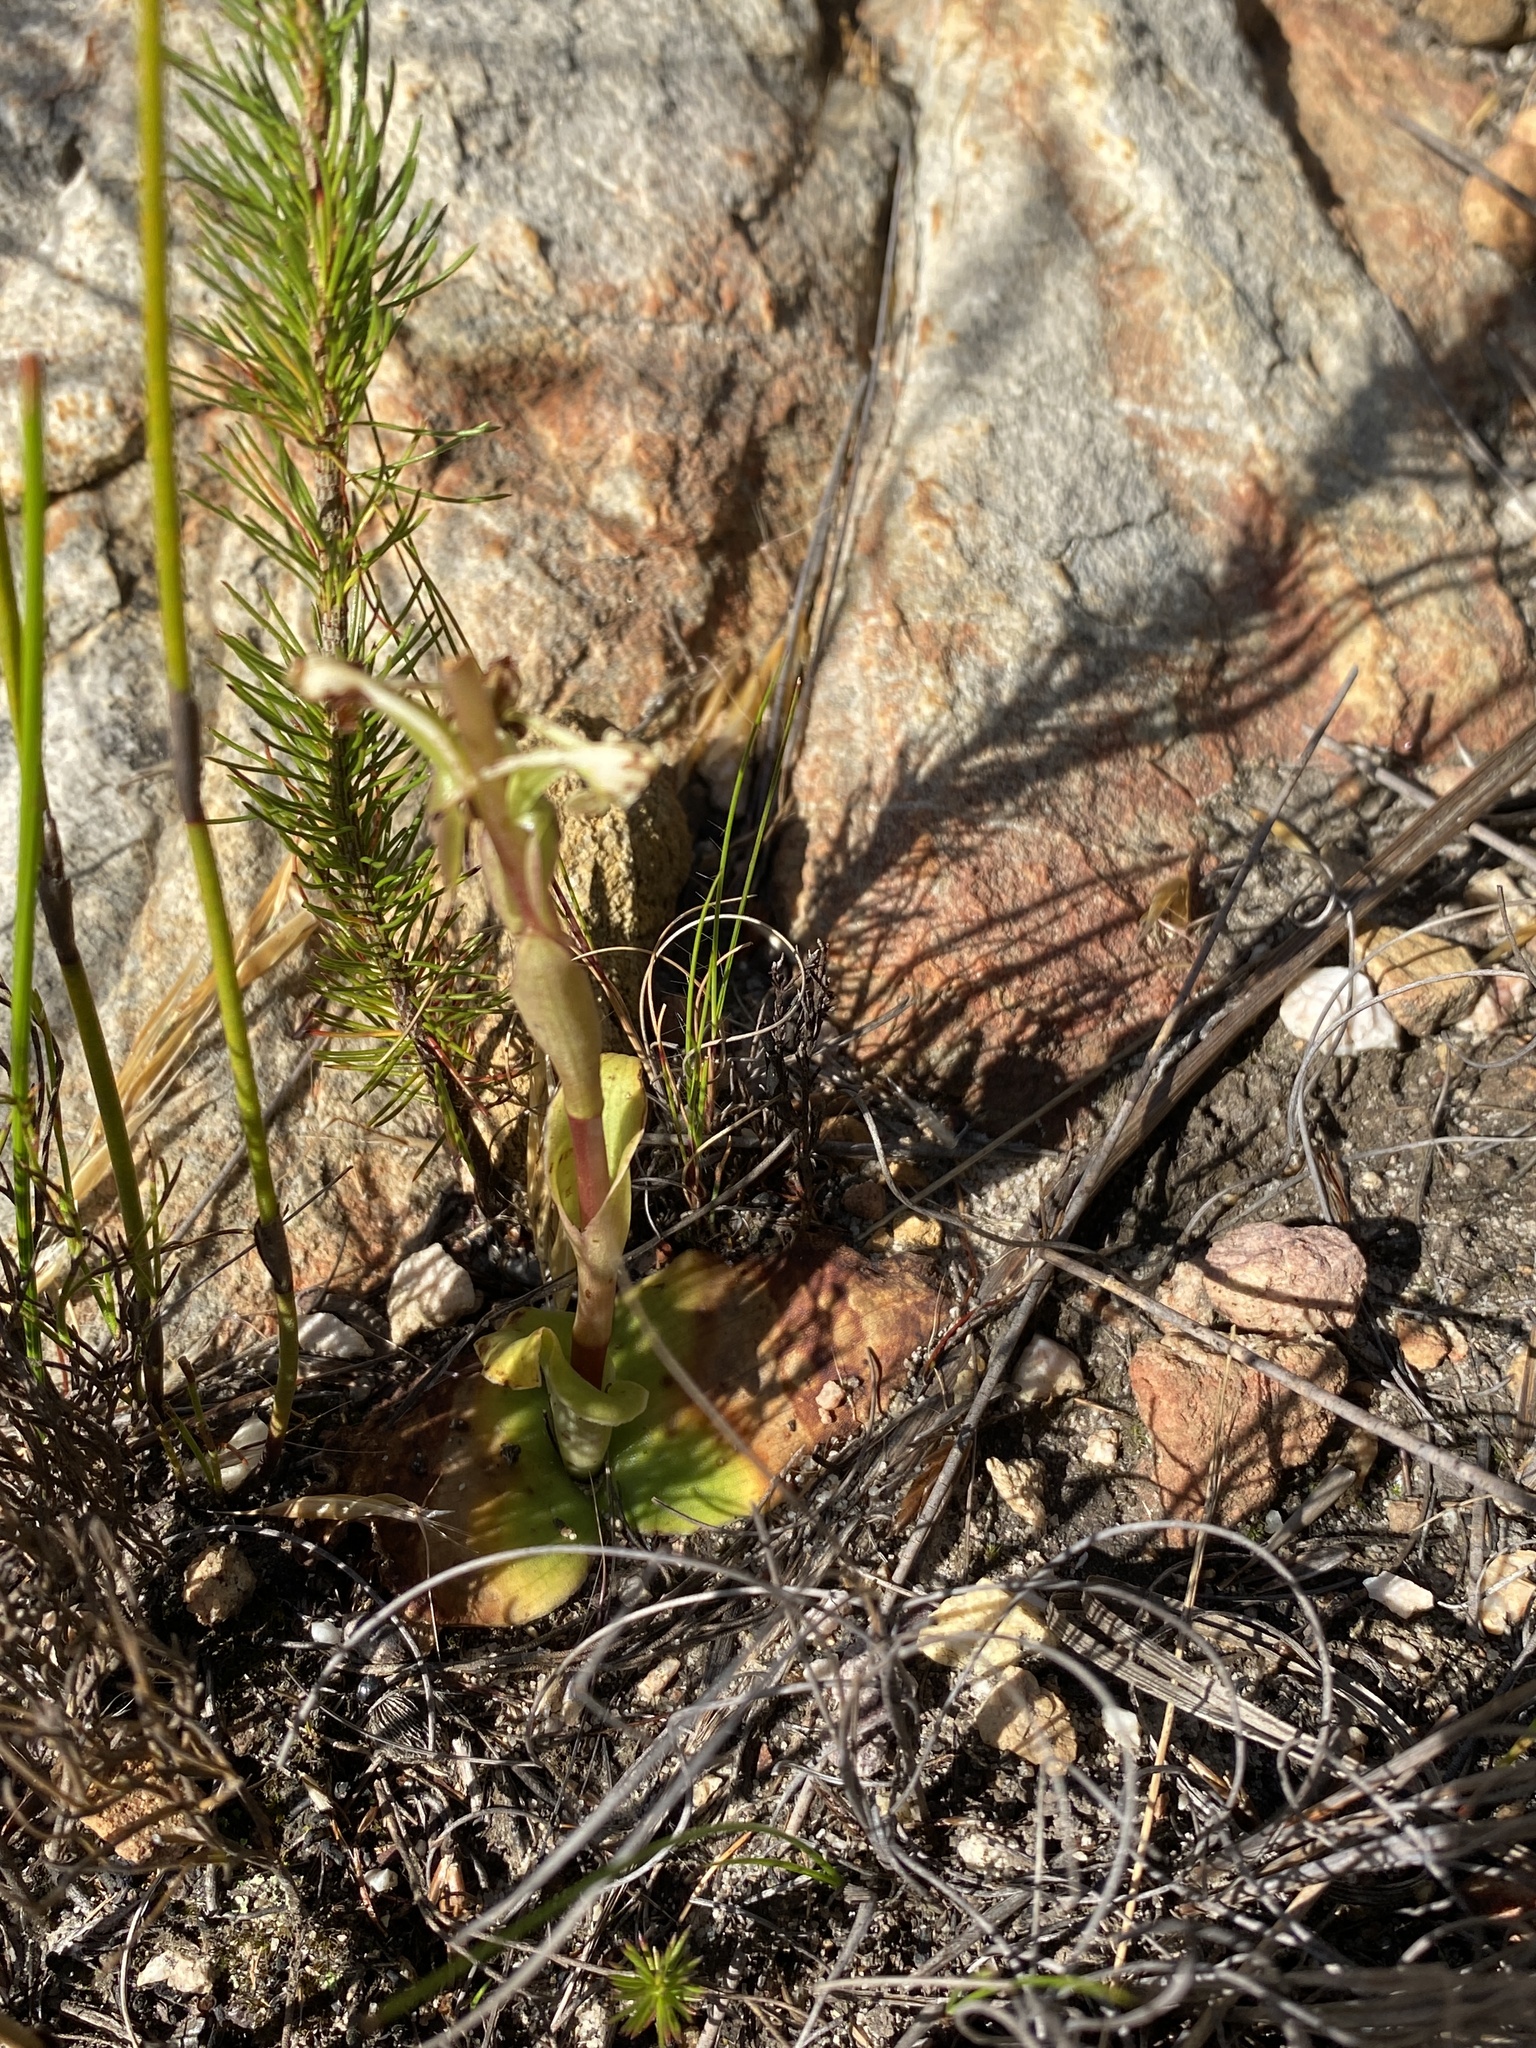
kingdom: Plantae
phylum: Tracheophyta
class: Liliopsida
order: Asparagales
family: Orchidaceae
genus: Satyrium
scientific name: Satyrium humile
